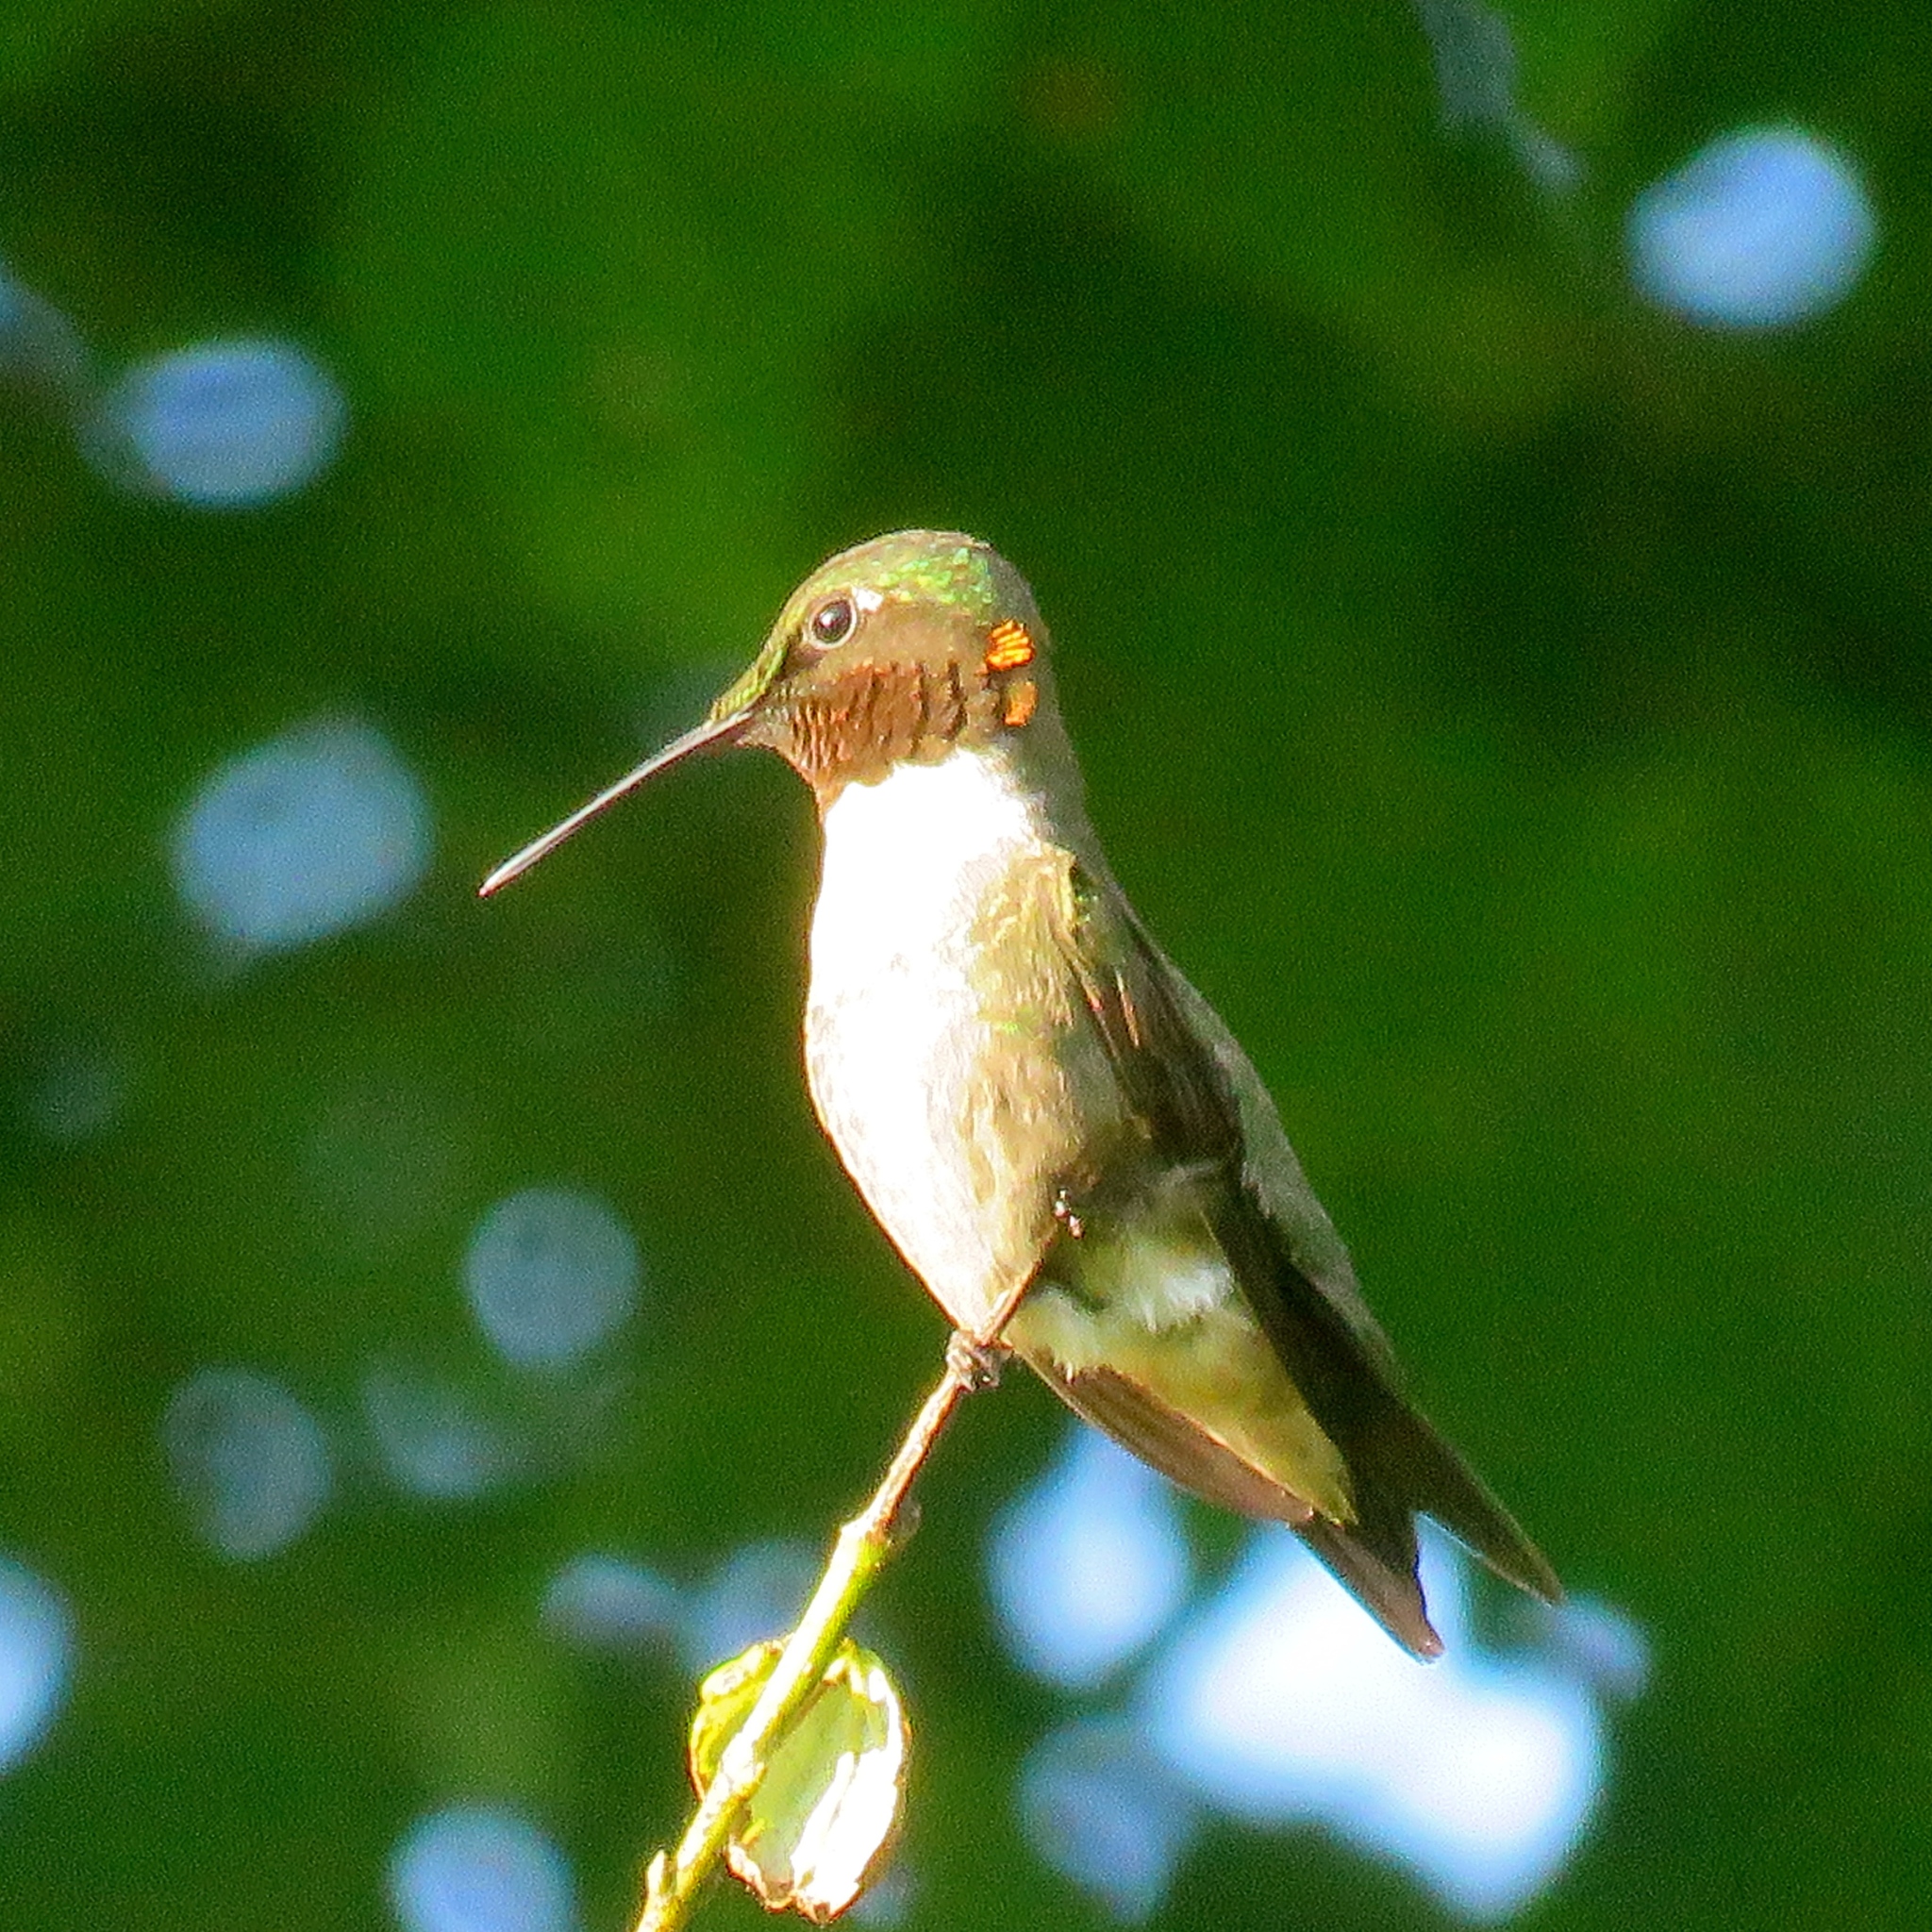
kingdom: Animalia
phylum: Chordata
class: Aves
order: Apodiformes
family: Trochilidae
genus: Archilochus
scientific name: Archilochus colubris
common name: Ruby-throated hummingbird
